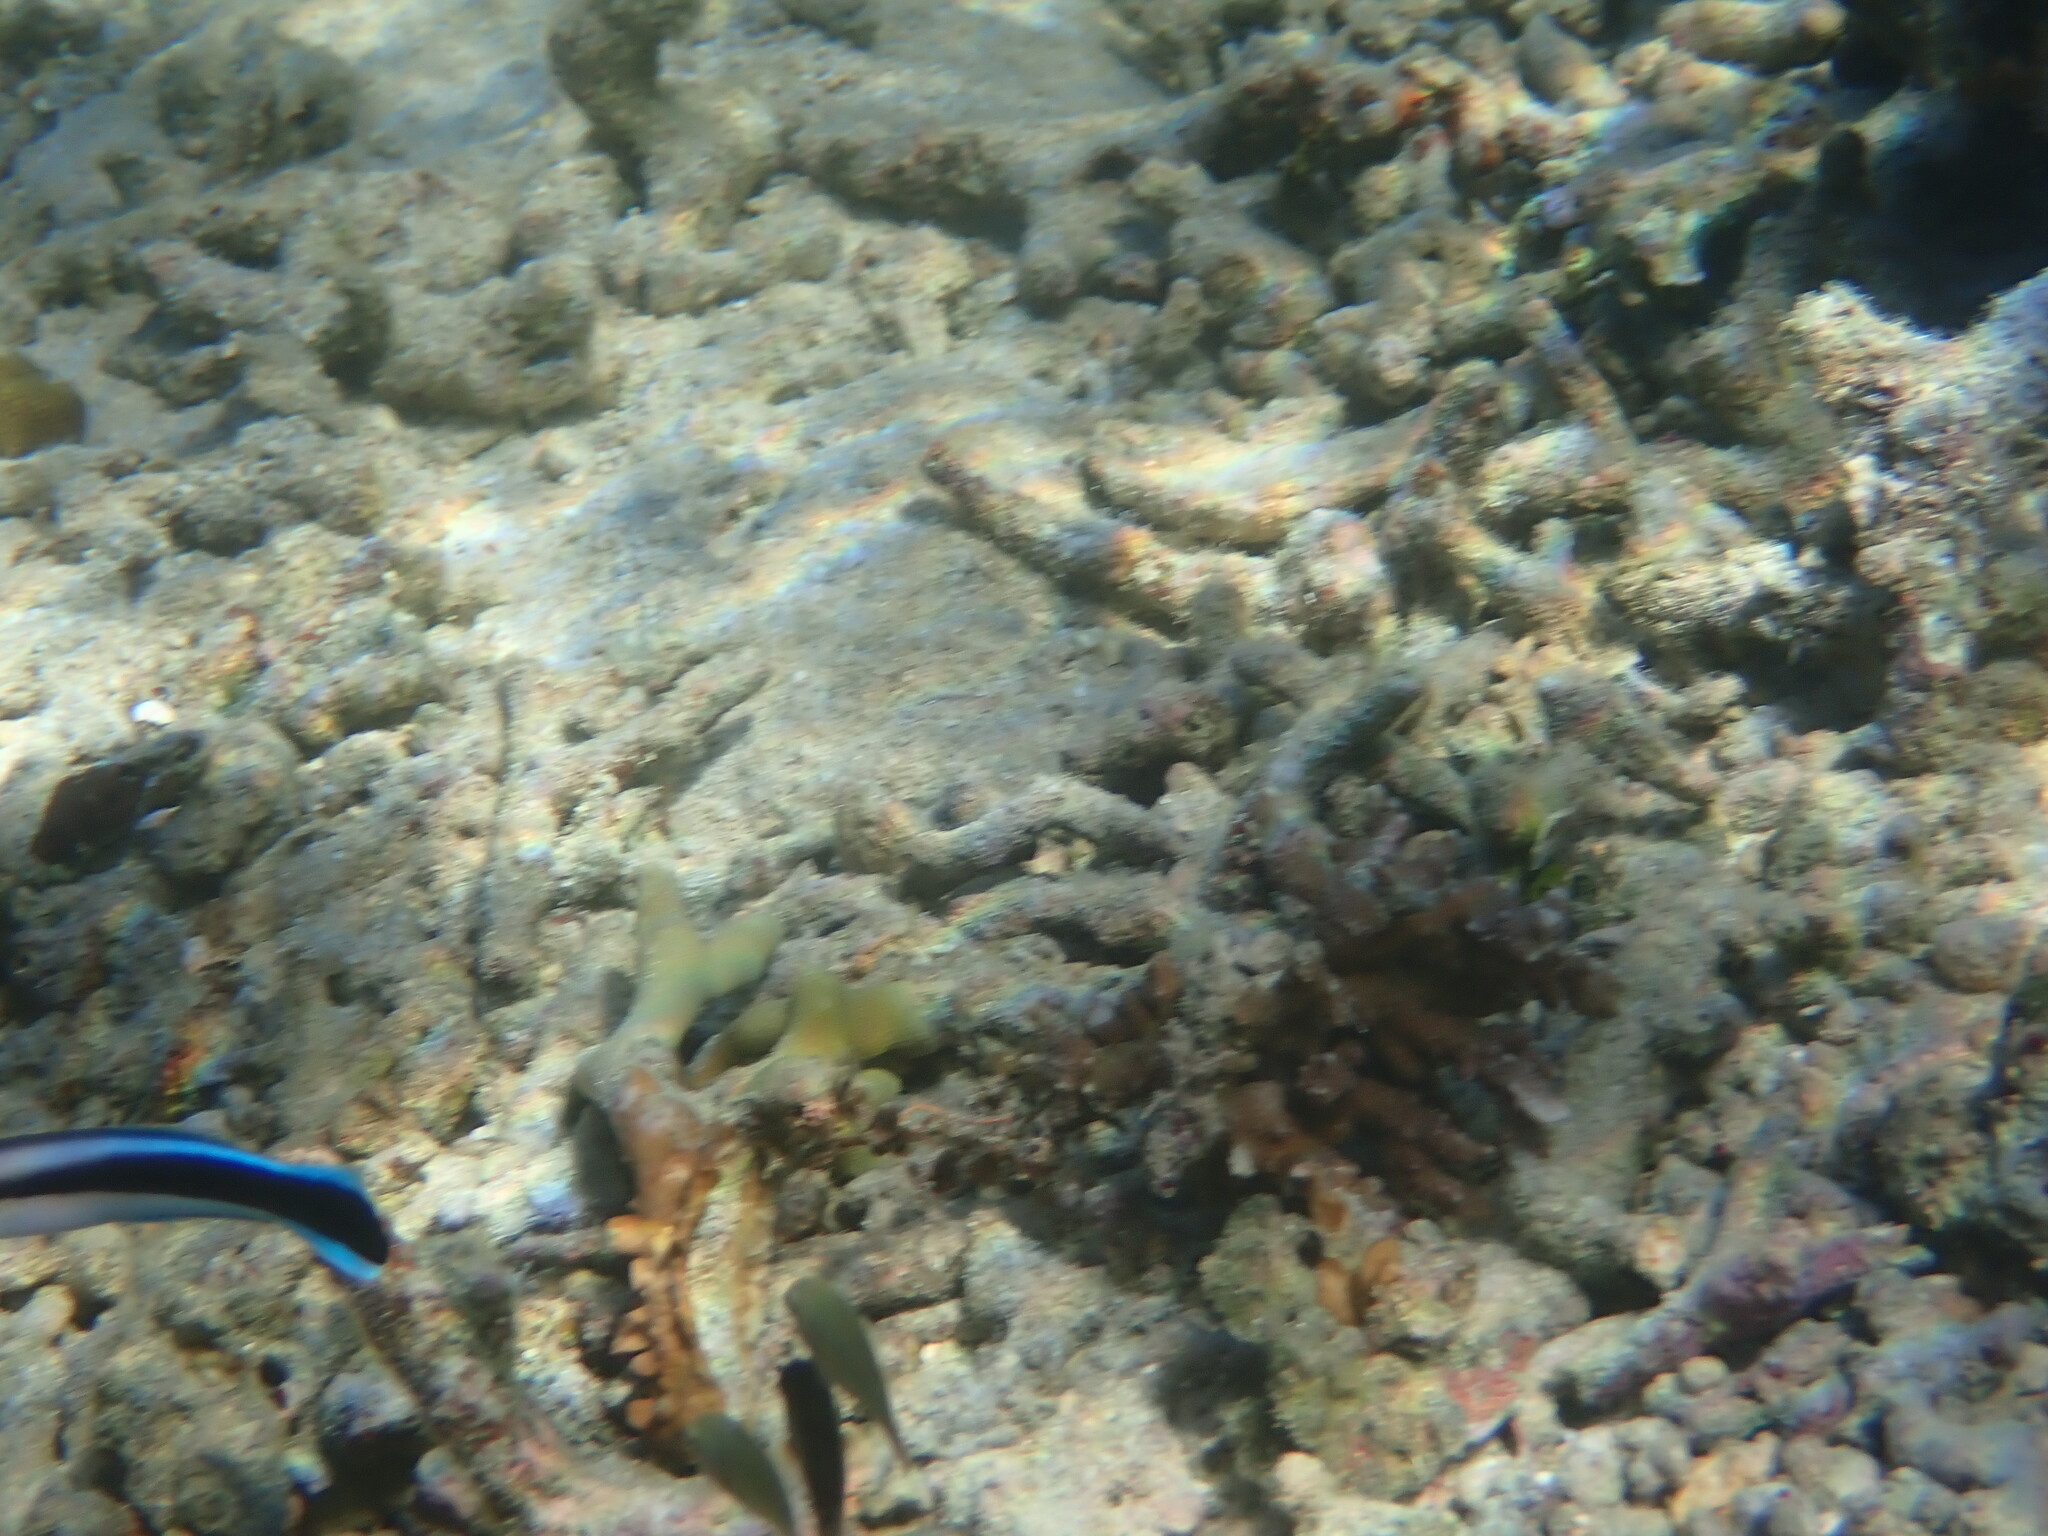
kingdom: Animalia
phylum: Chordata
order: Perciformes
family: Labridae
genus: Labroides
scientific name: Labroides dimidiatus
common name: Blue diesel wrasse
